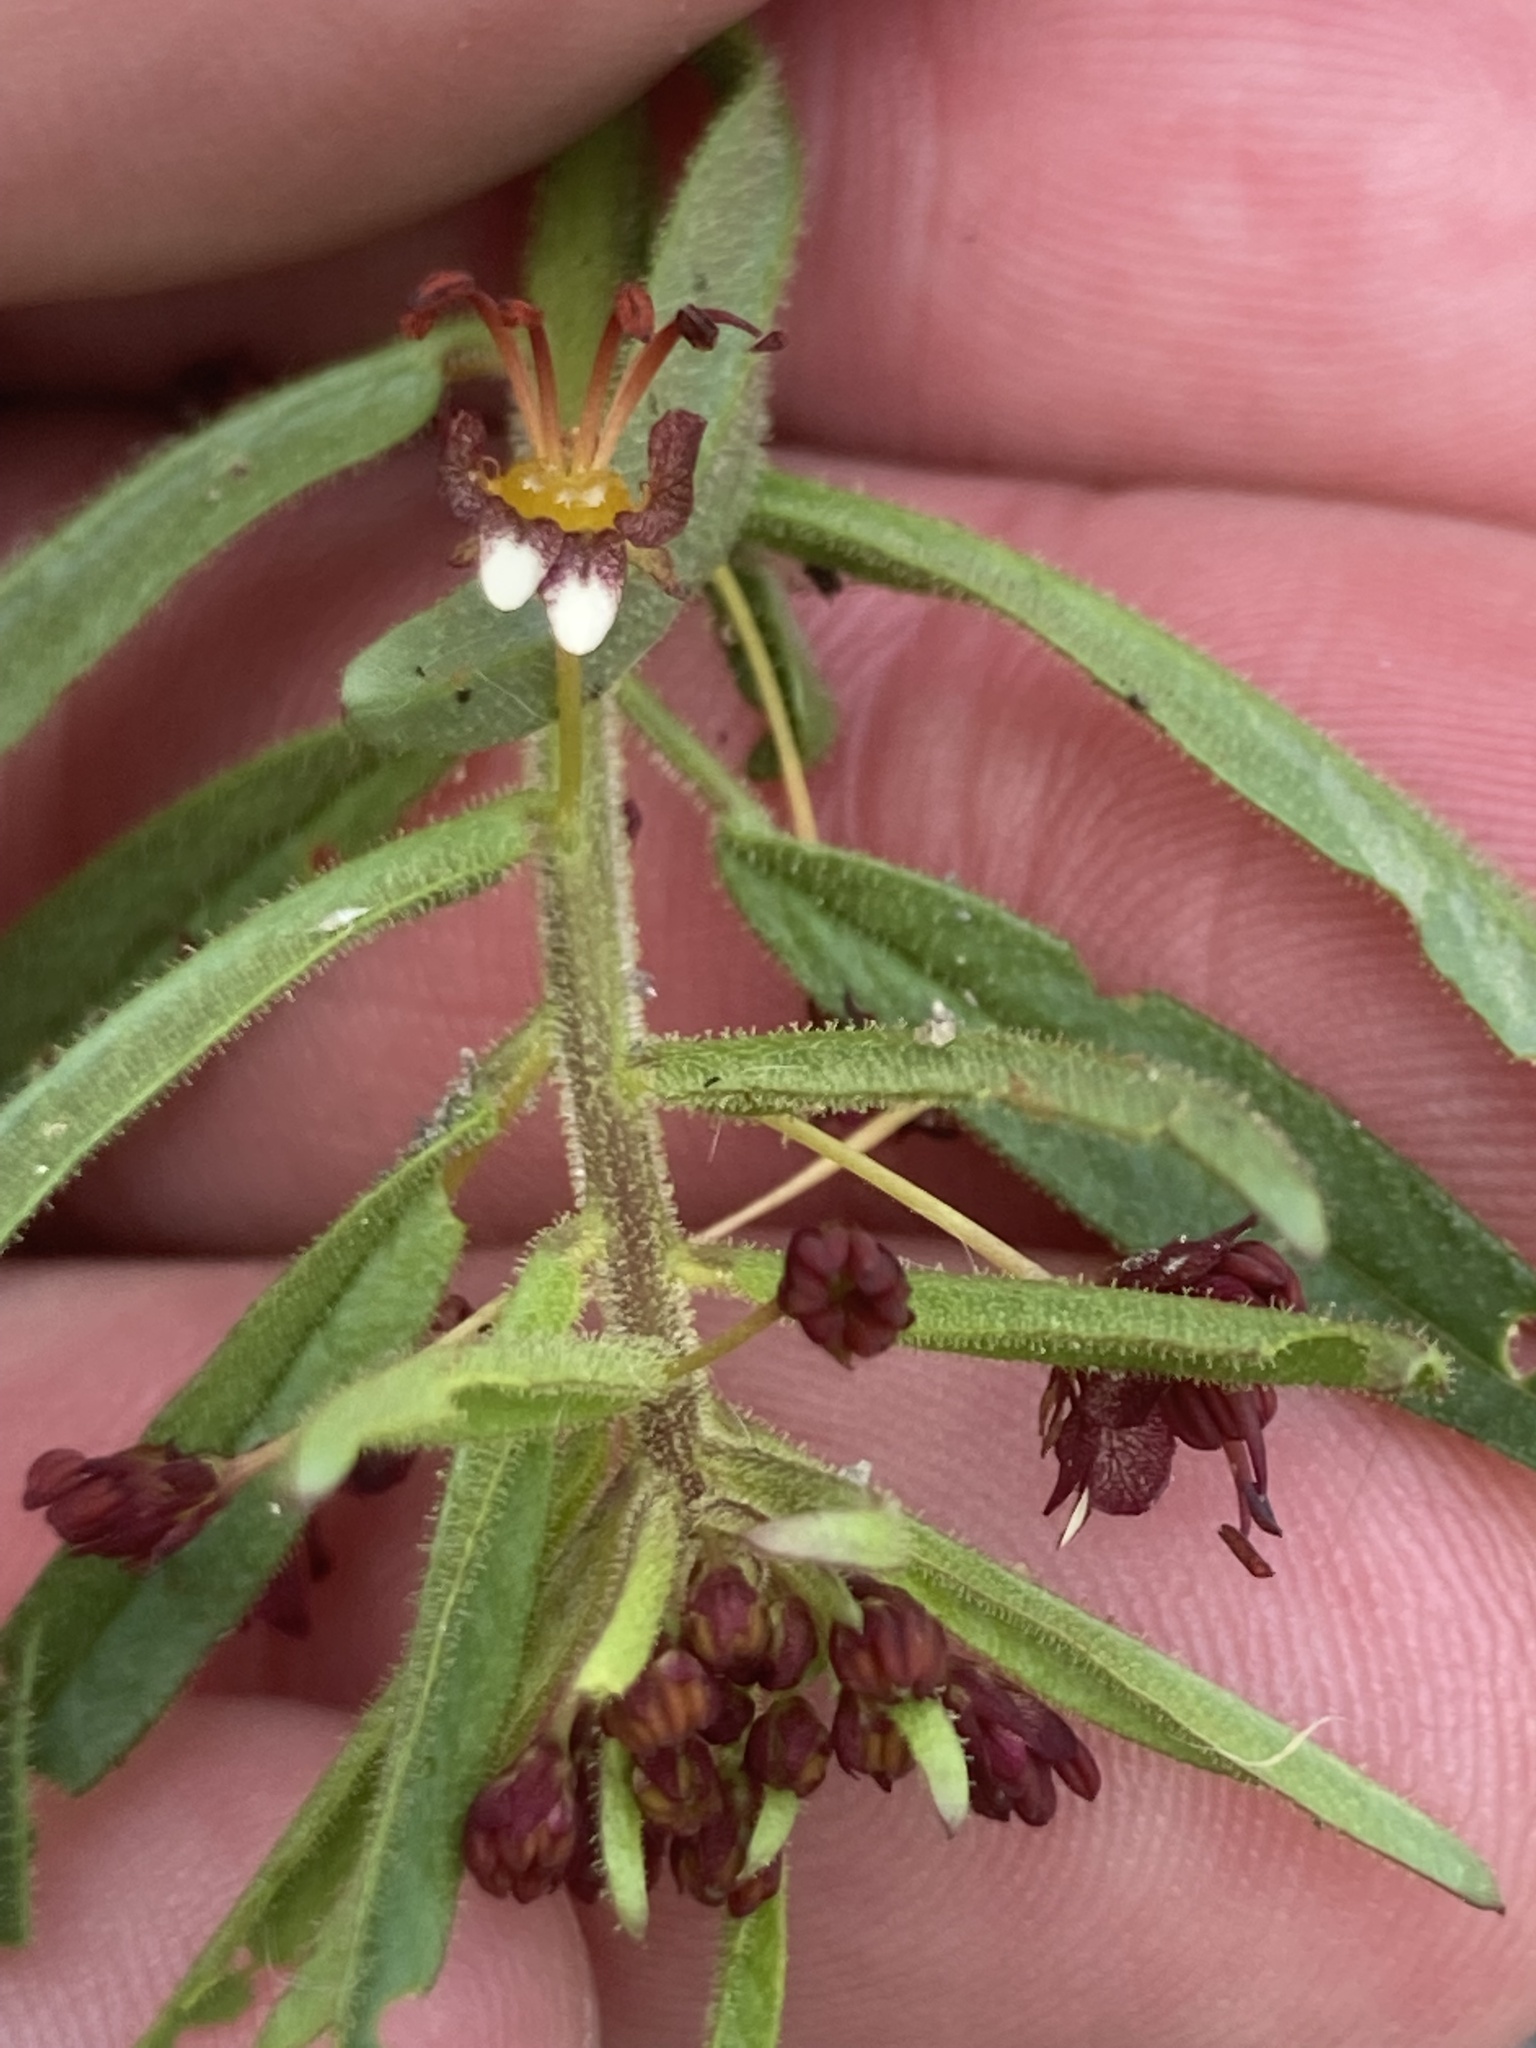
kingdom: Plantae
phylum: Tracheophyta
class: Magnoliopsida
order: Brassicales
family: Cleomaceae
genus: Cleome
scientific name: Cleome violacea
